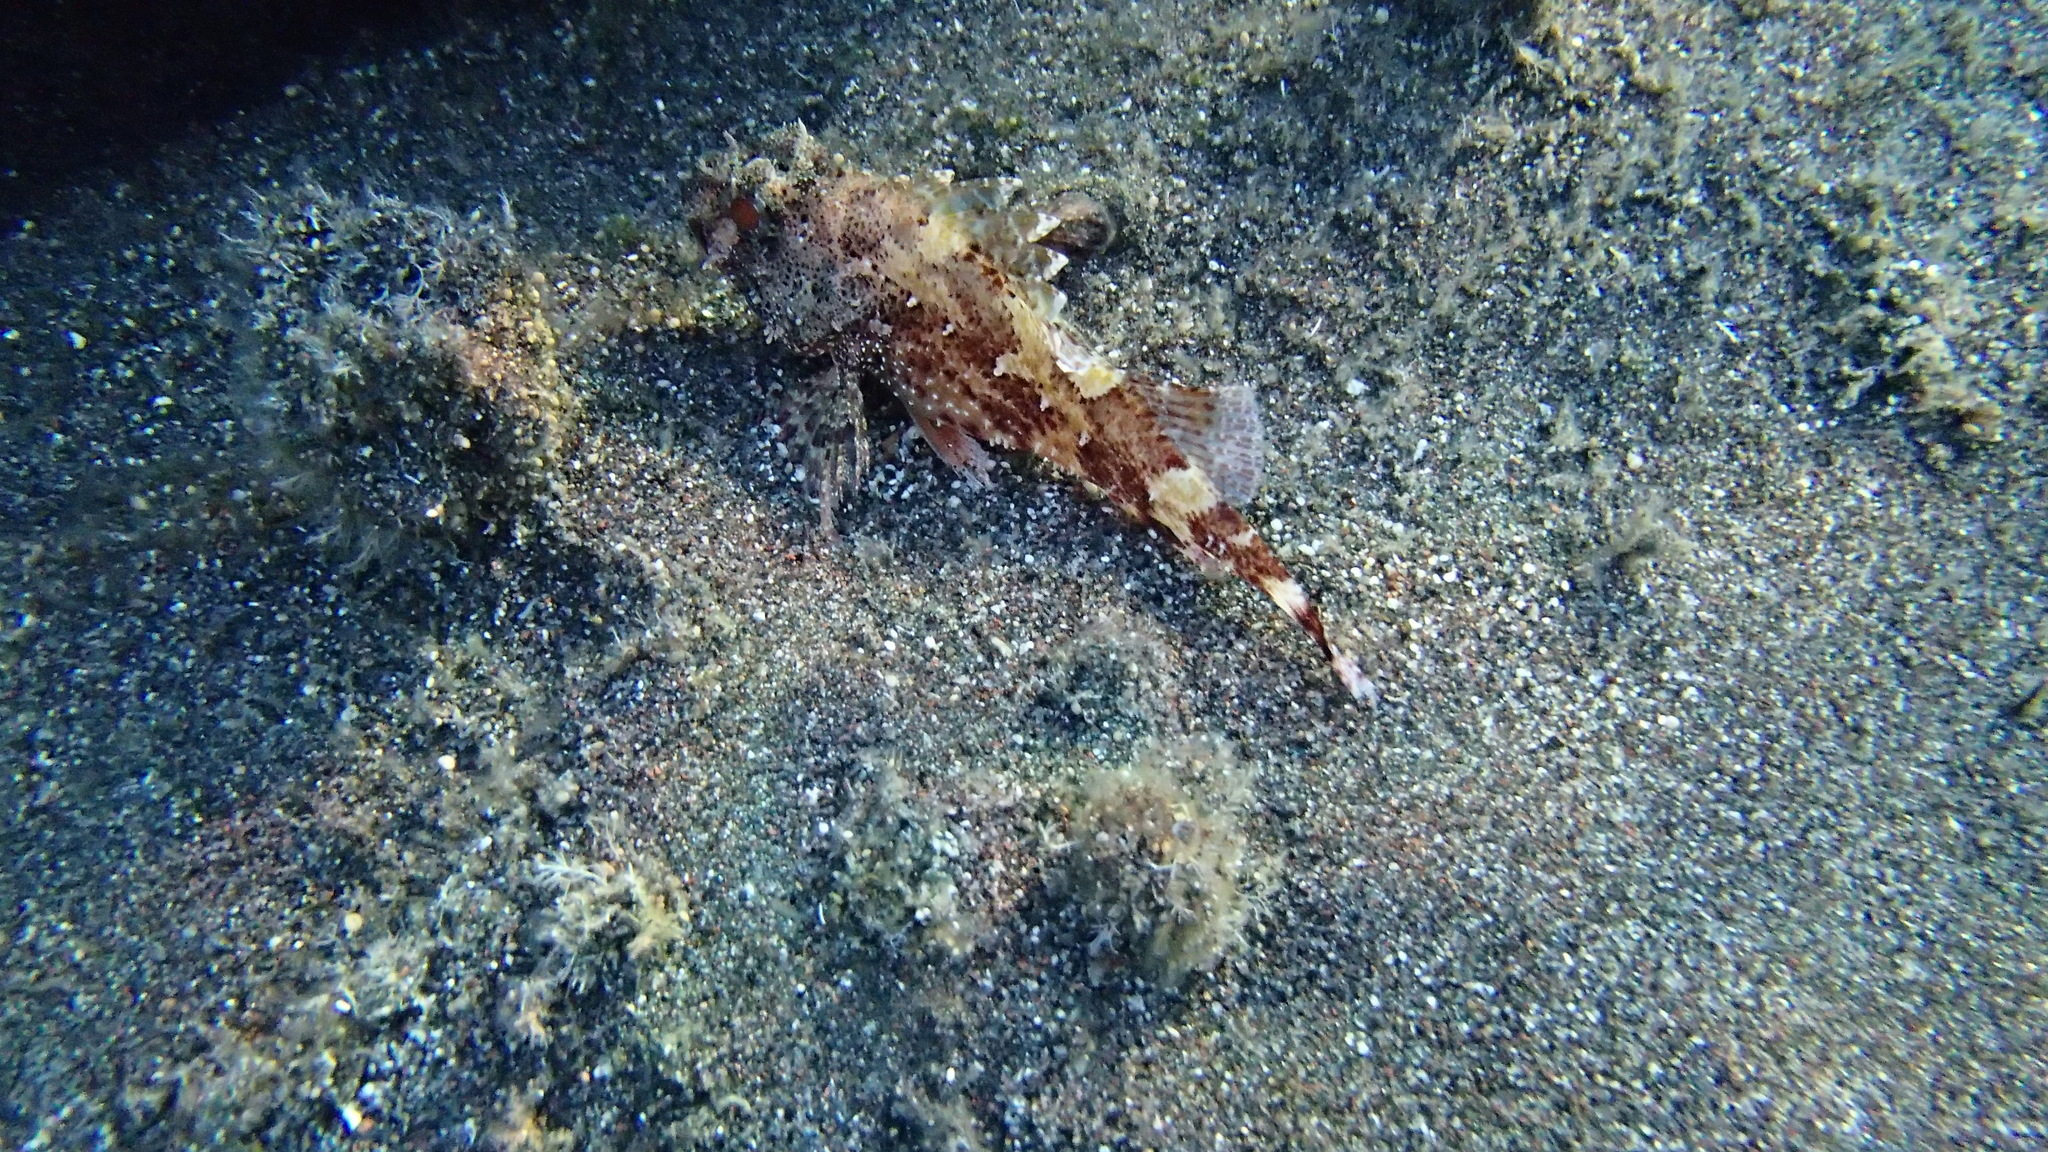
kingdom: Animalia
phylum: Chordata
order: Scorpaeniformes
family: Scorpaenidae
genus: Scorpaena
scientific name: Scorpaena maderensis
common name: Madeira rockfish
